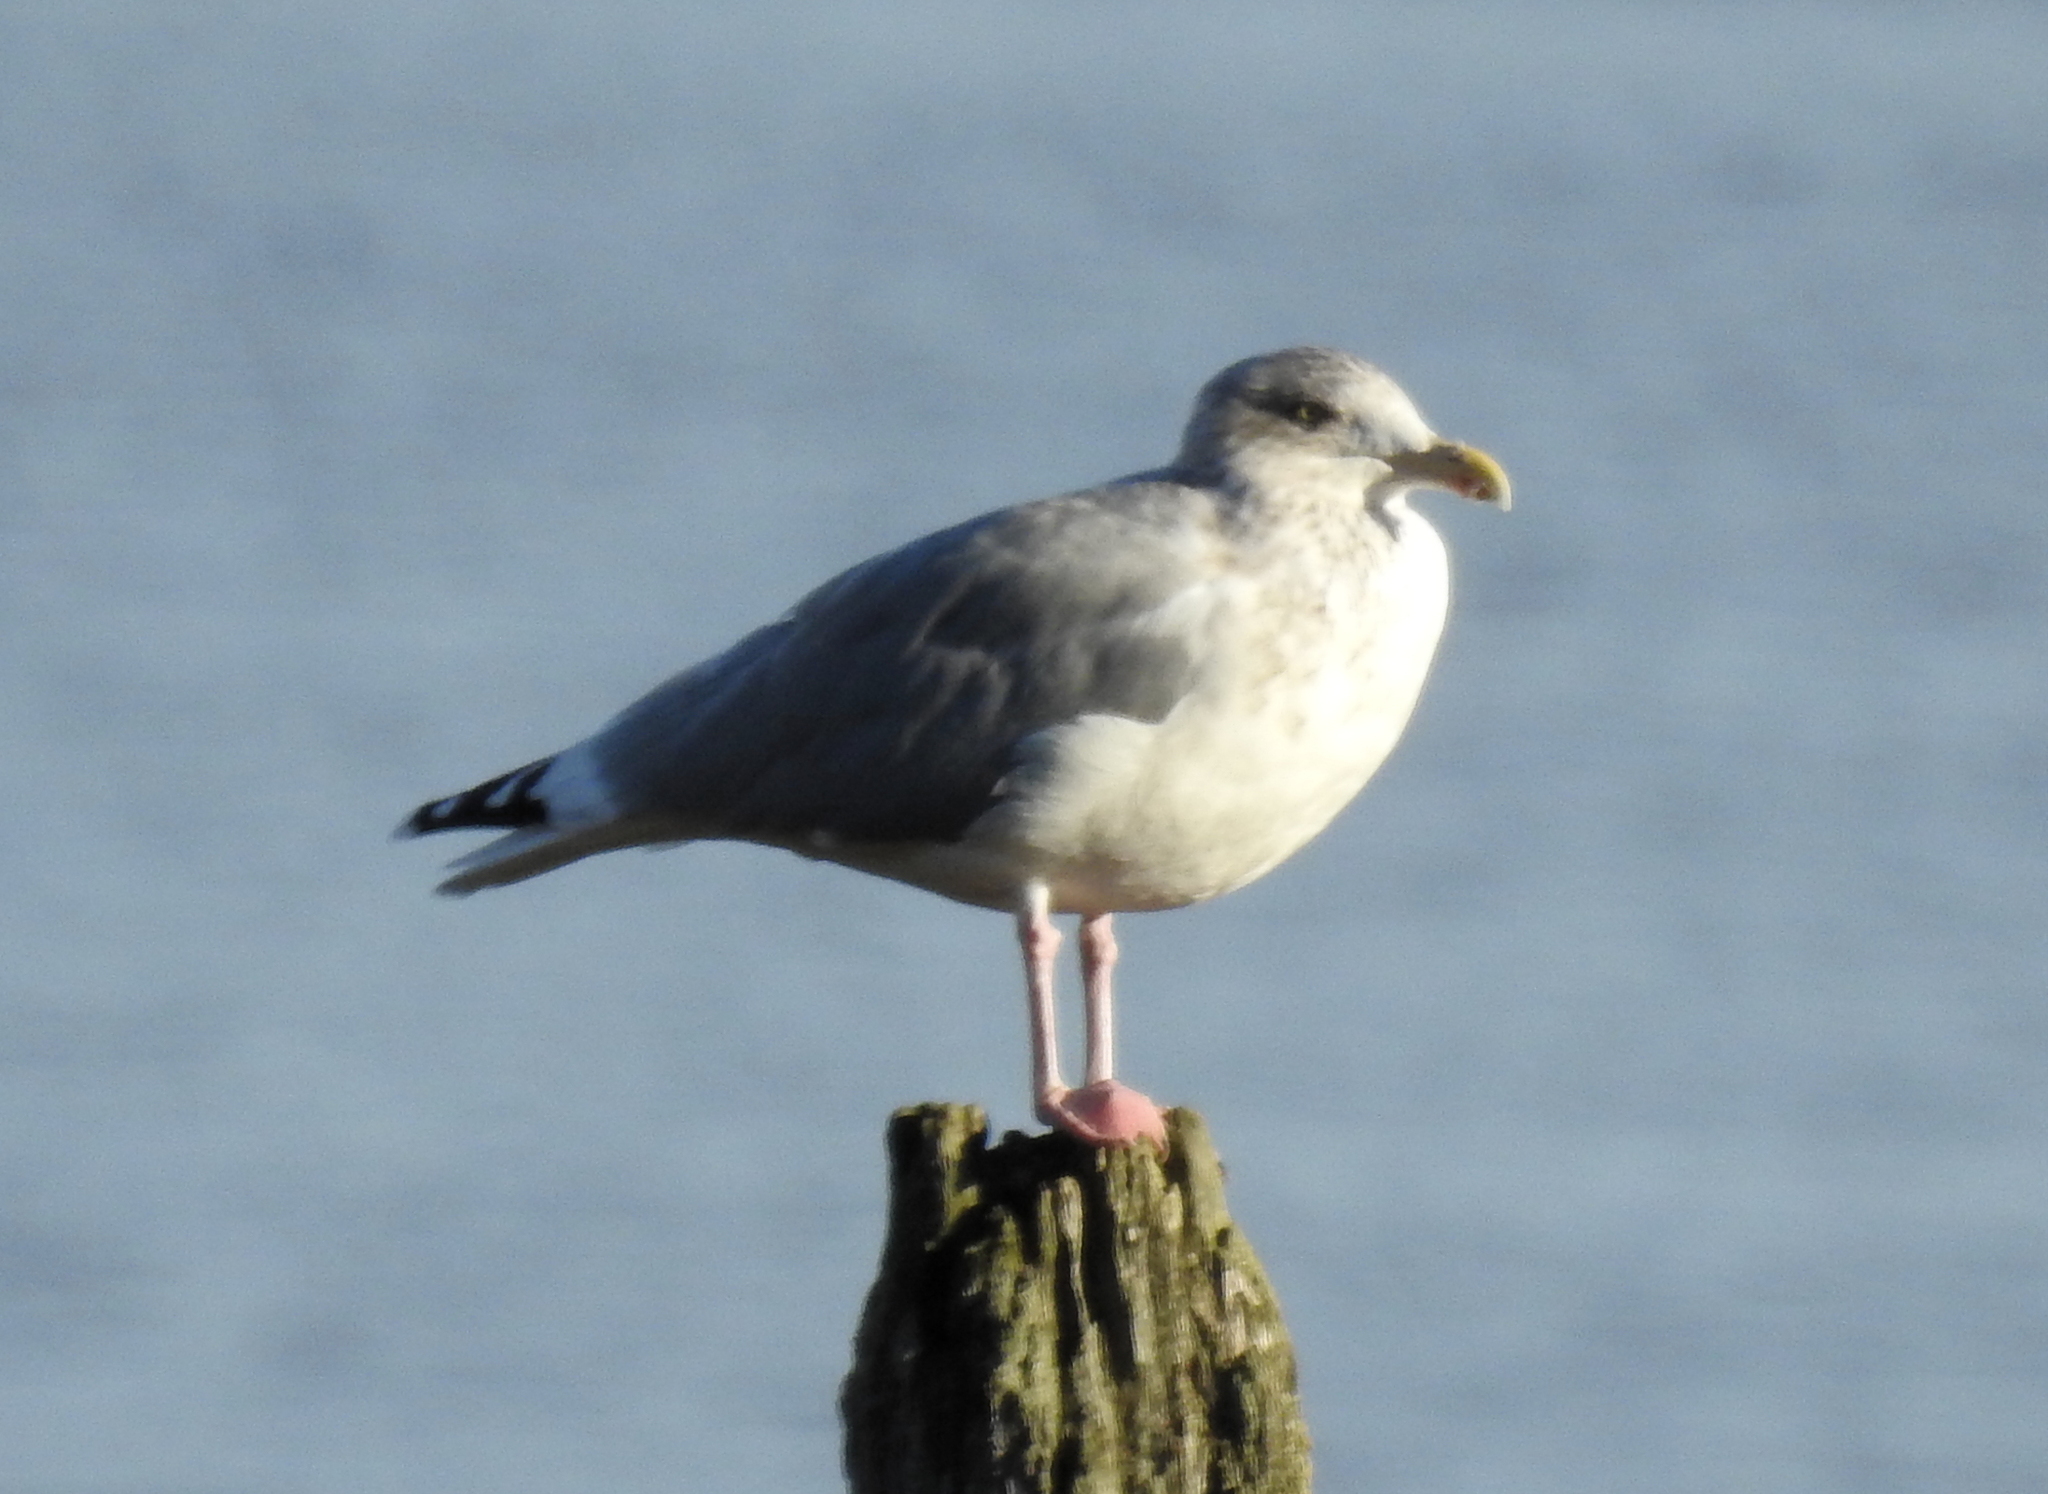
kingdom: Animalia
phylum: Chordata
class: Aves
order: Charadriiformes
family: Laridae
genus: Larus
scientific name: Larus argentatus
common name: Herring gull
